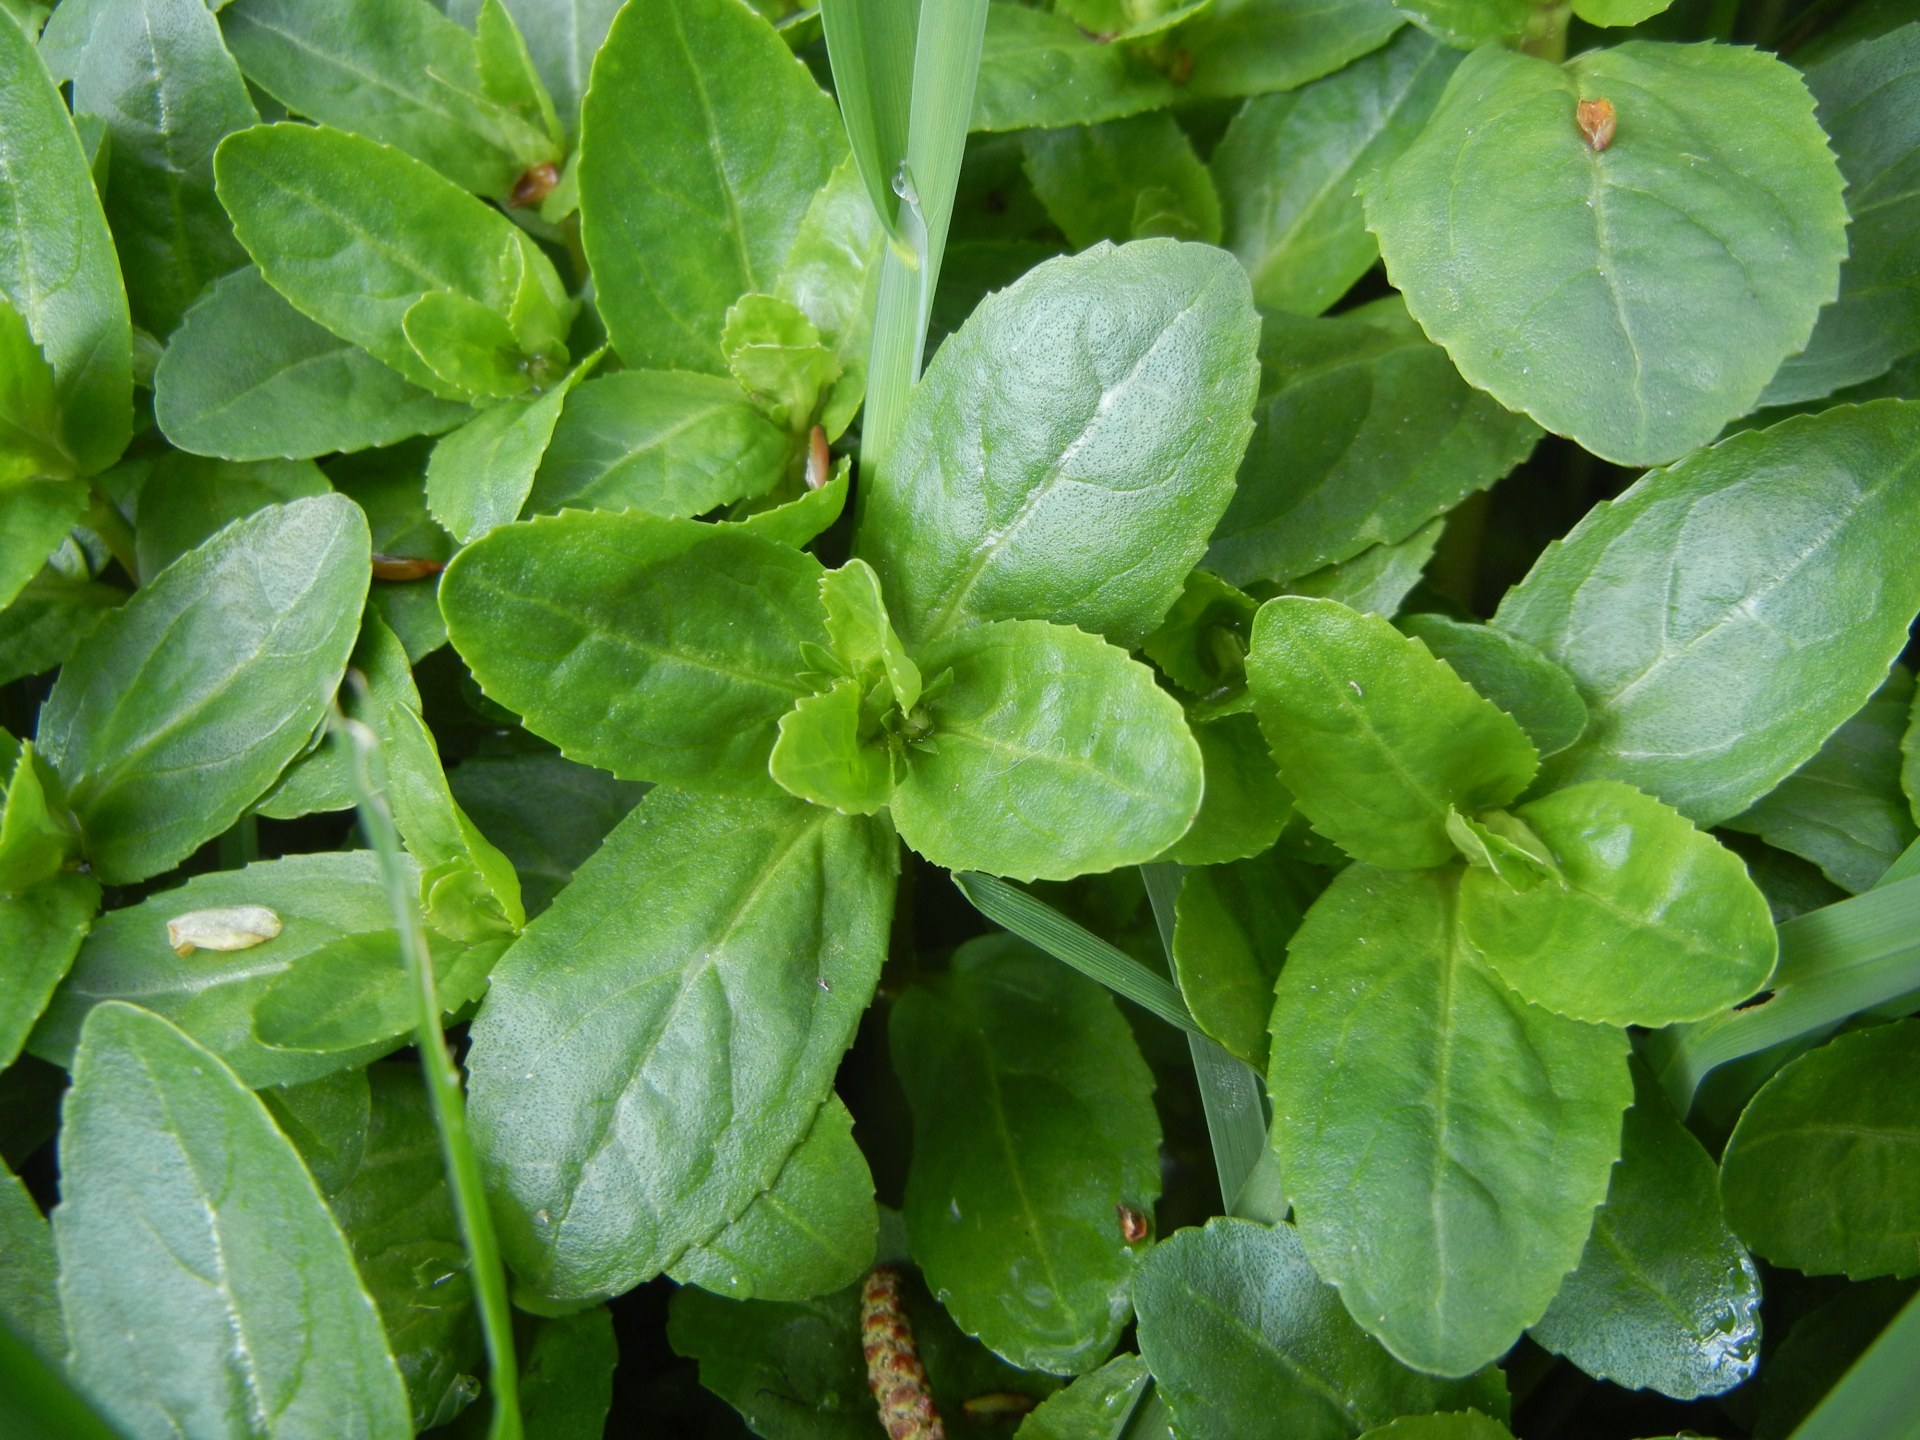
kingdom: Plantae
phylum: Tracheophyta
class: Magnoliopsida
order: Lamiales
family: Plantaginaceae
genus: Veronica
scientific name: Veronica beccabunga
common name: Brooklime
